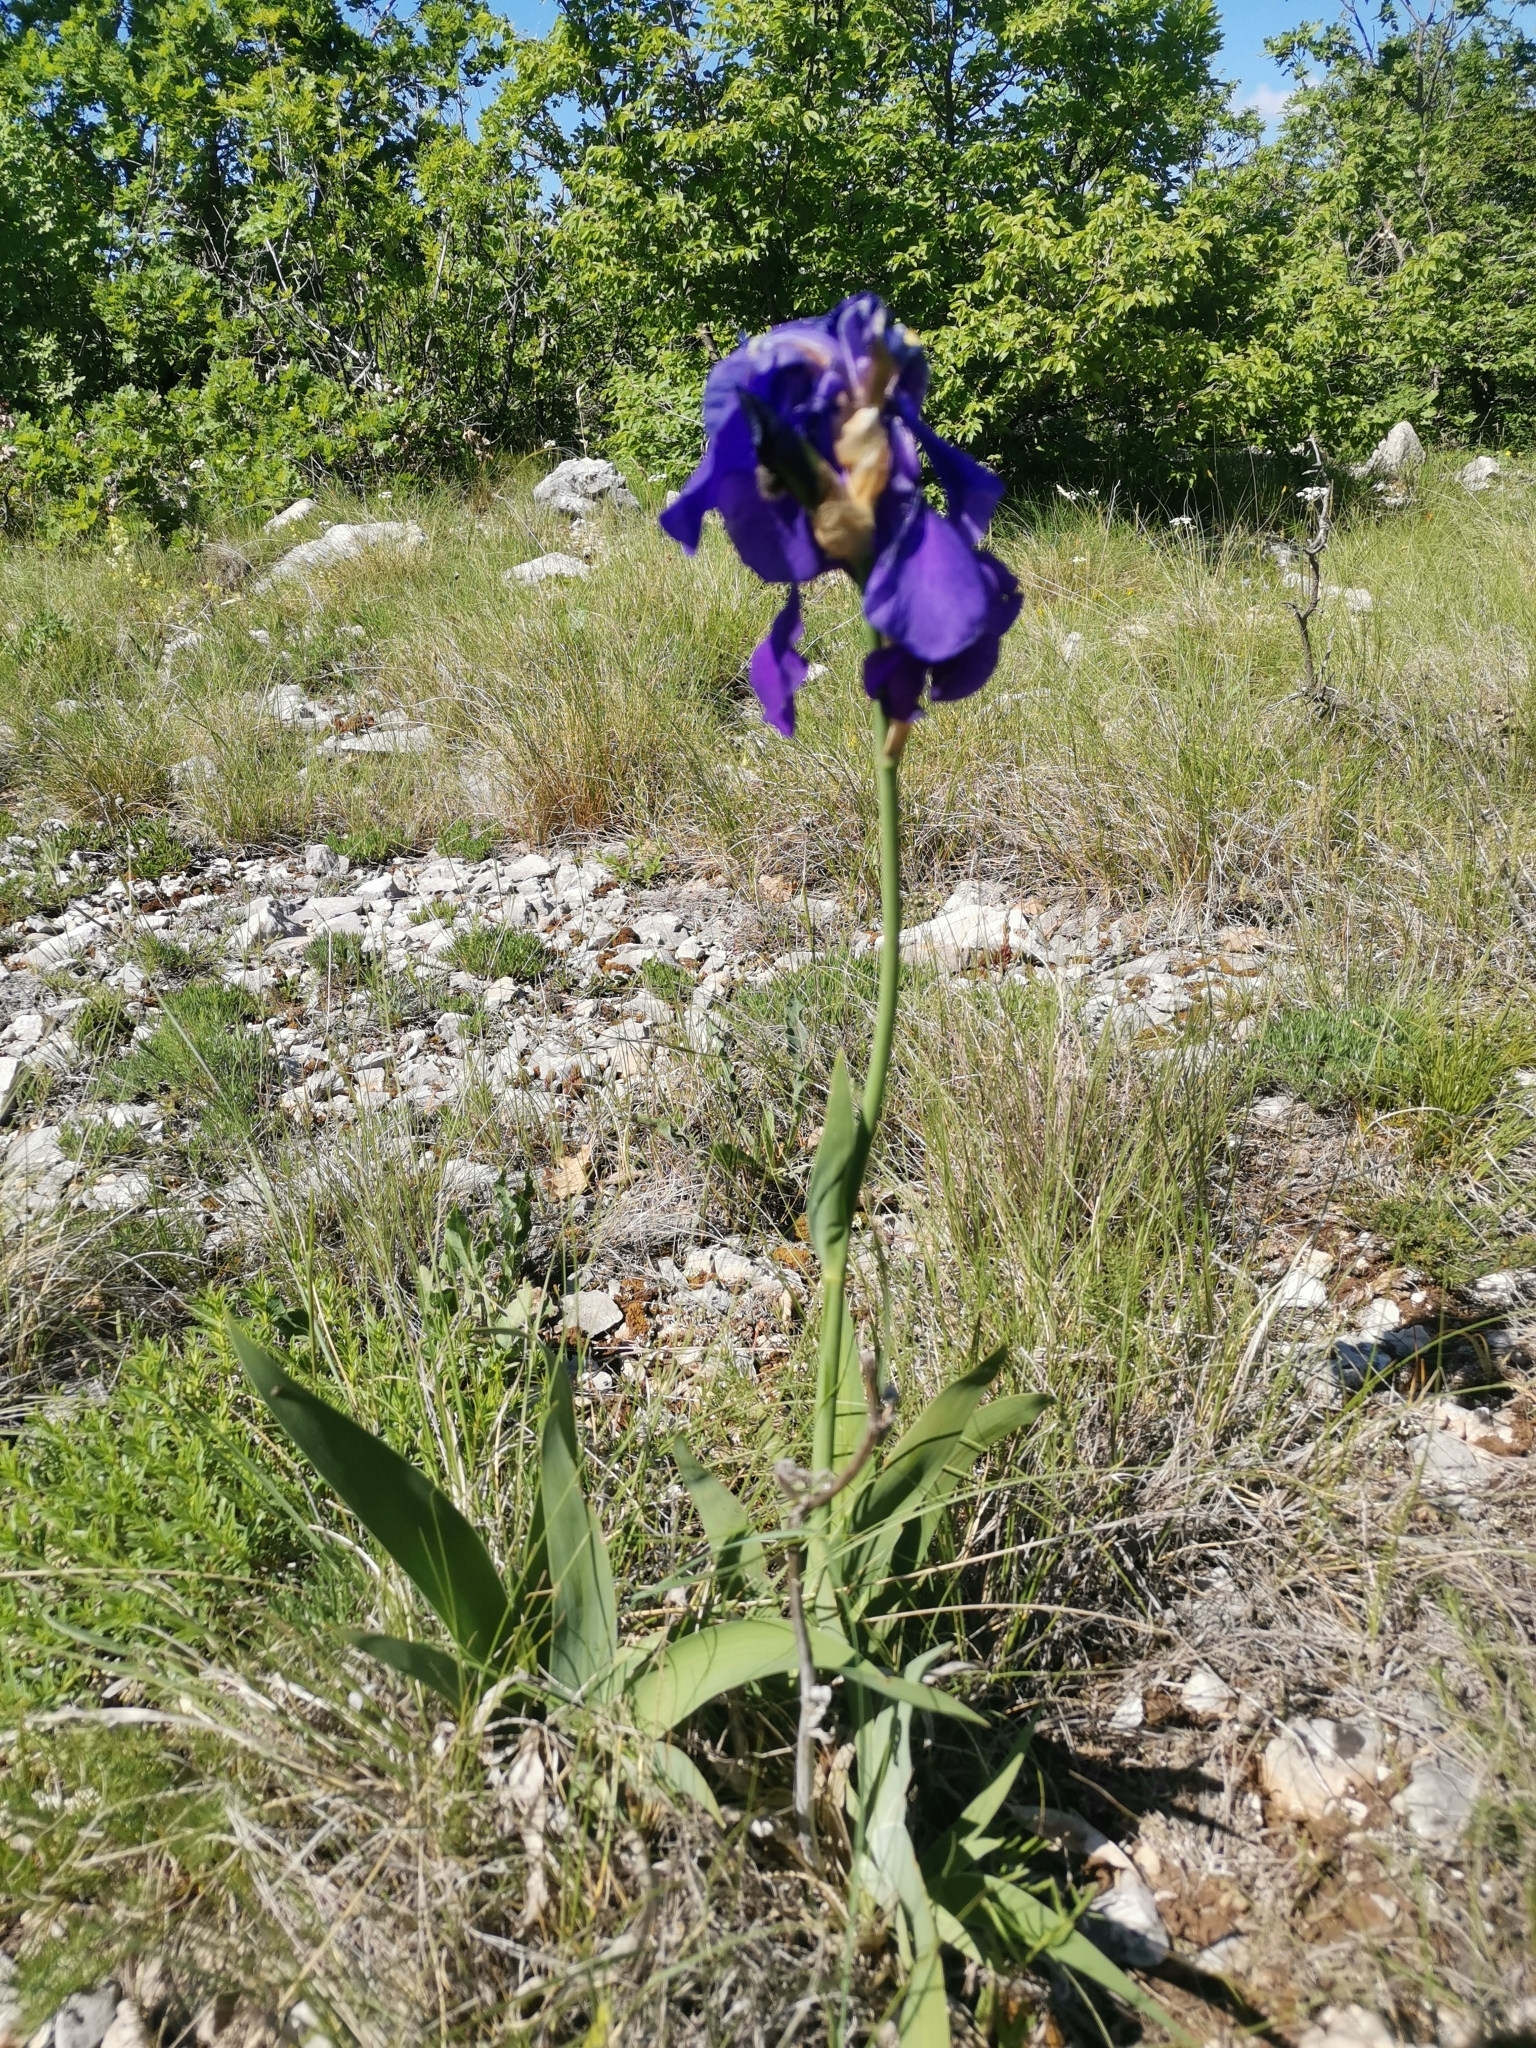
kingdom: Plantae
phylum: Tracheophyta
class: Liliopsida
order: Asparagales
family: Iridaceae
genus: Iris
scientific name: Iris pallida
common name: Sweet iris
